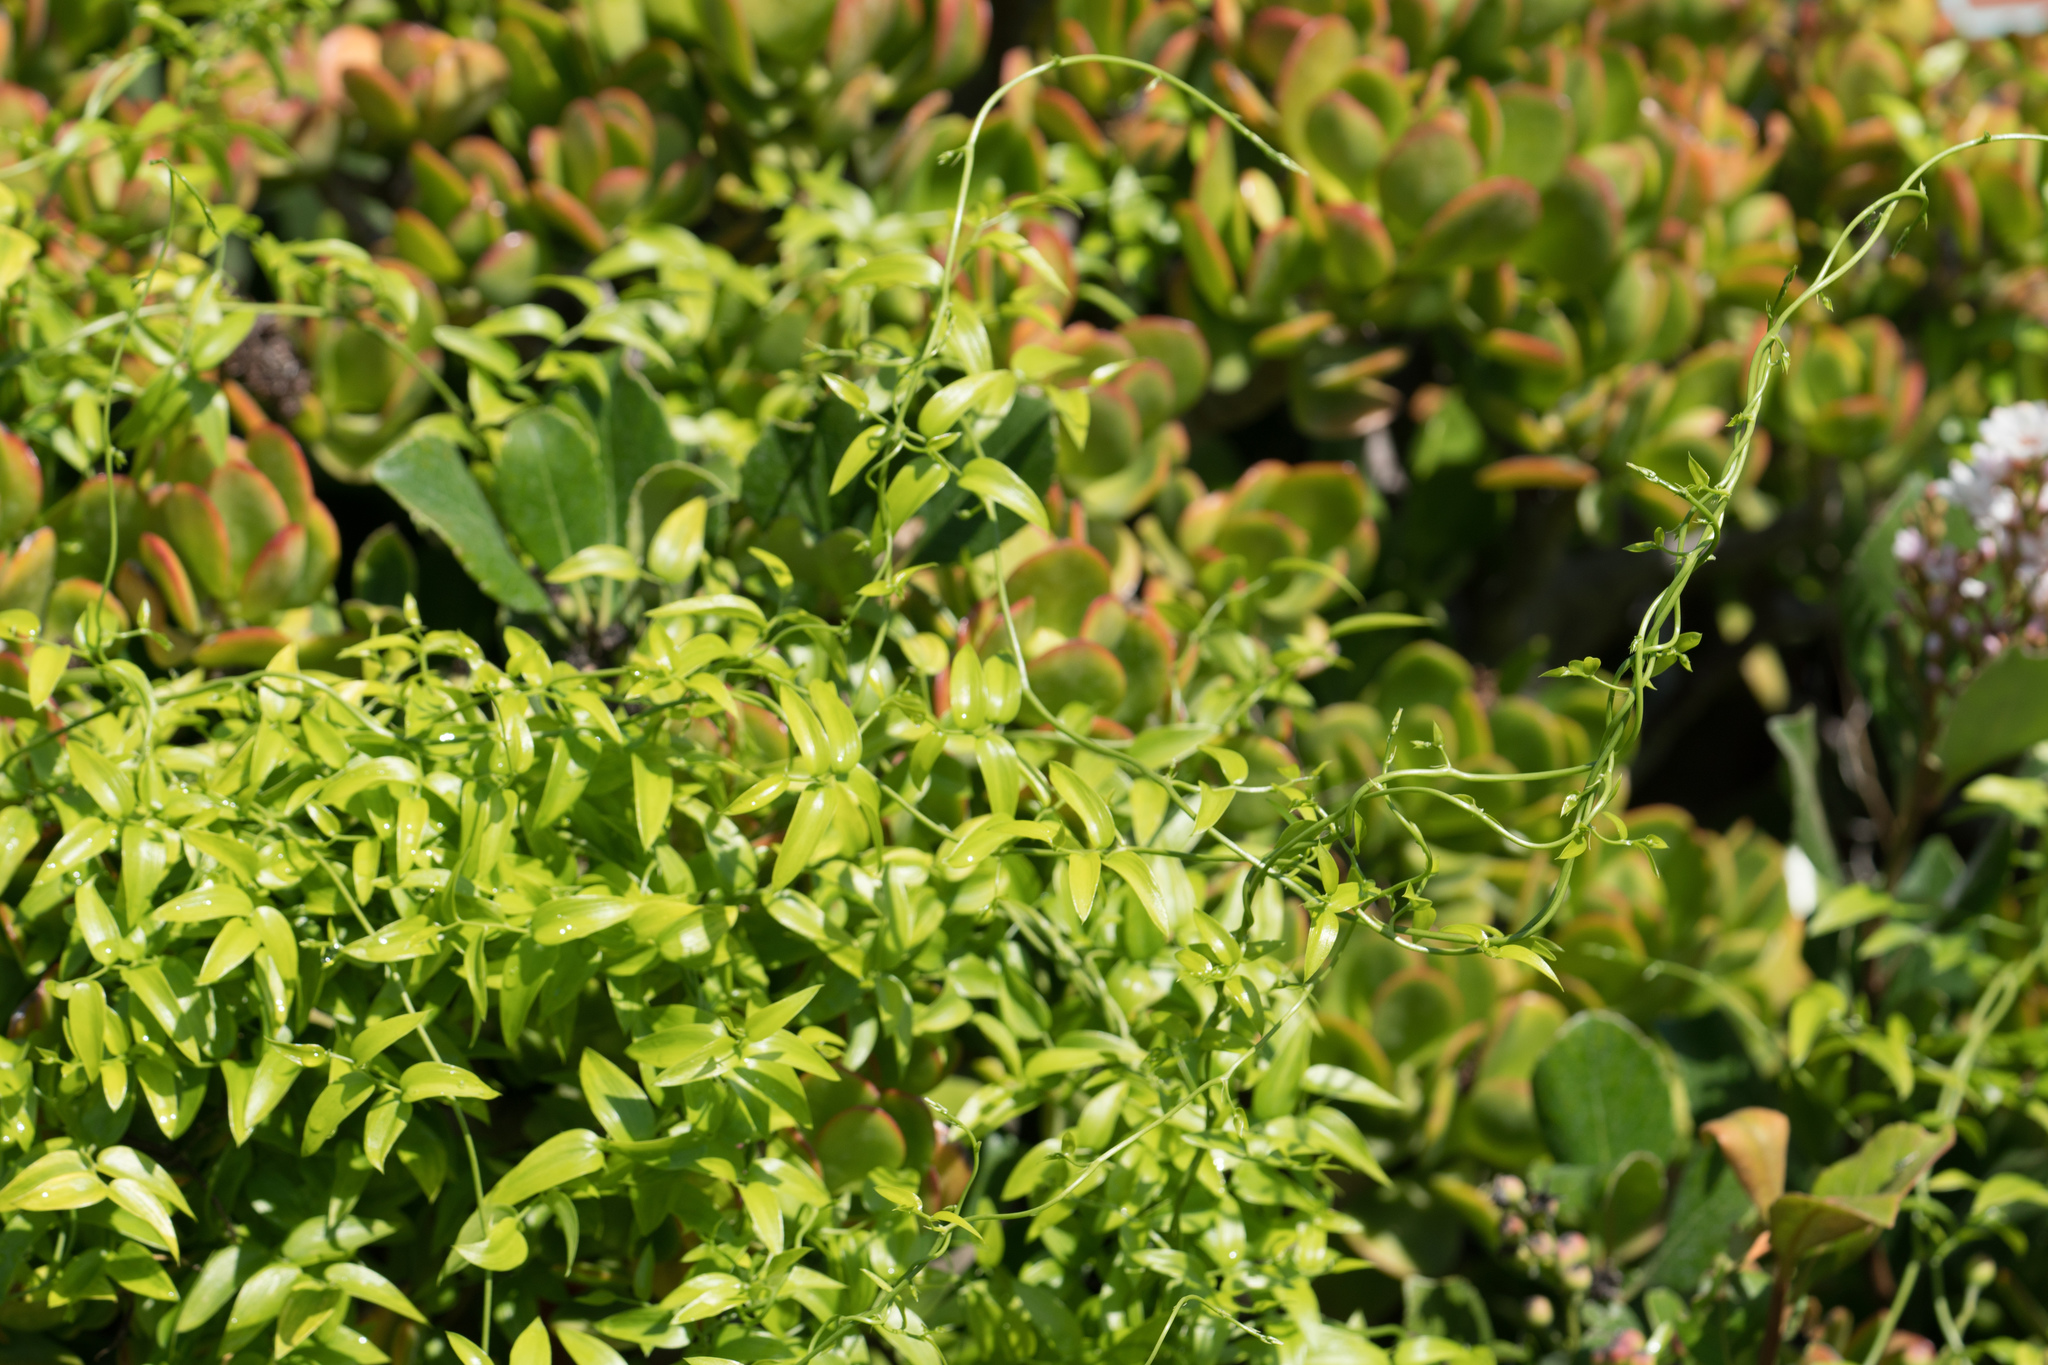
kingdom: Plantae
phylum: Tracheophyta
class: Liliopsida
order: Asparagales
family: Asparagaceae
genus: Asparagus
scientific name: Asparagus asparagoides
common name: African asparagus fern
